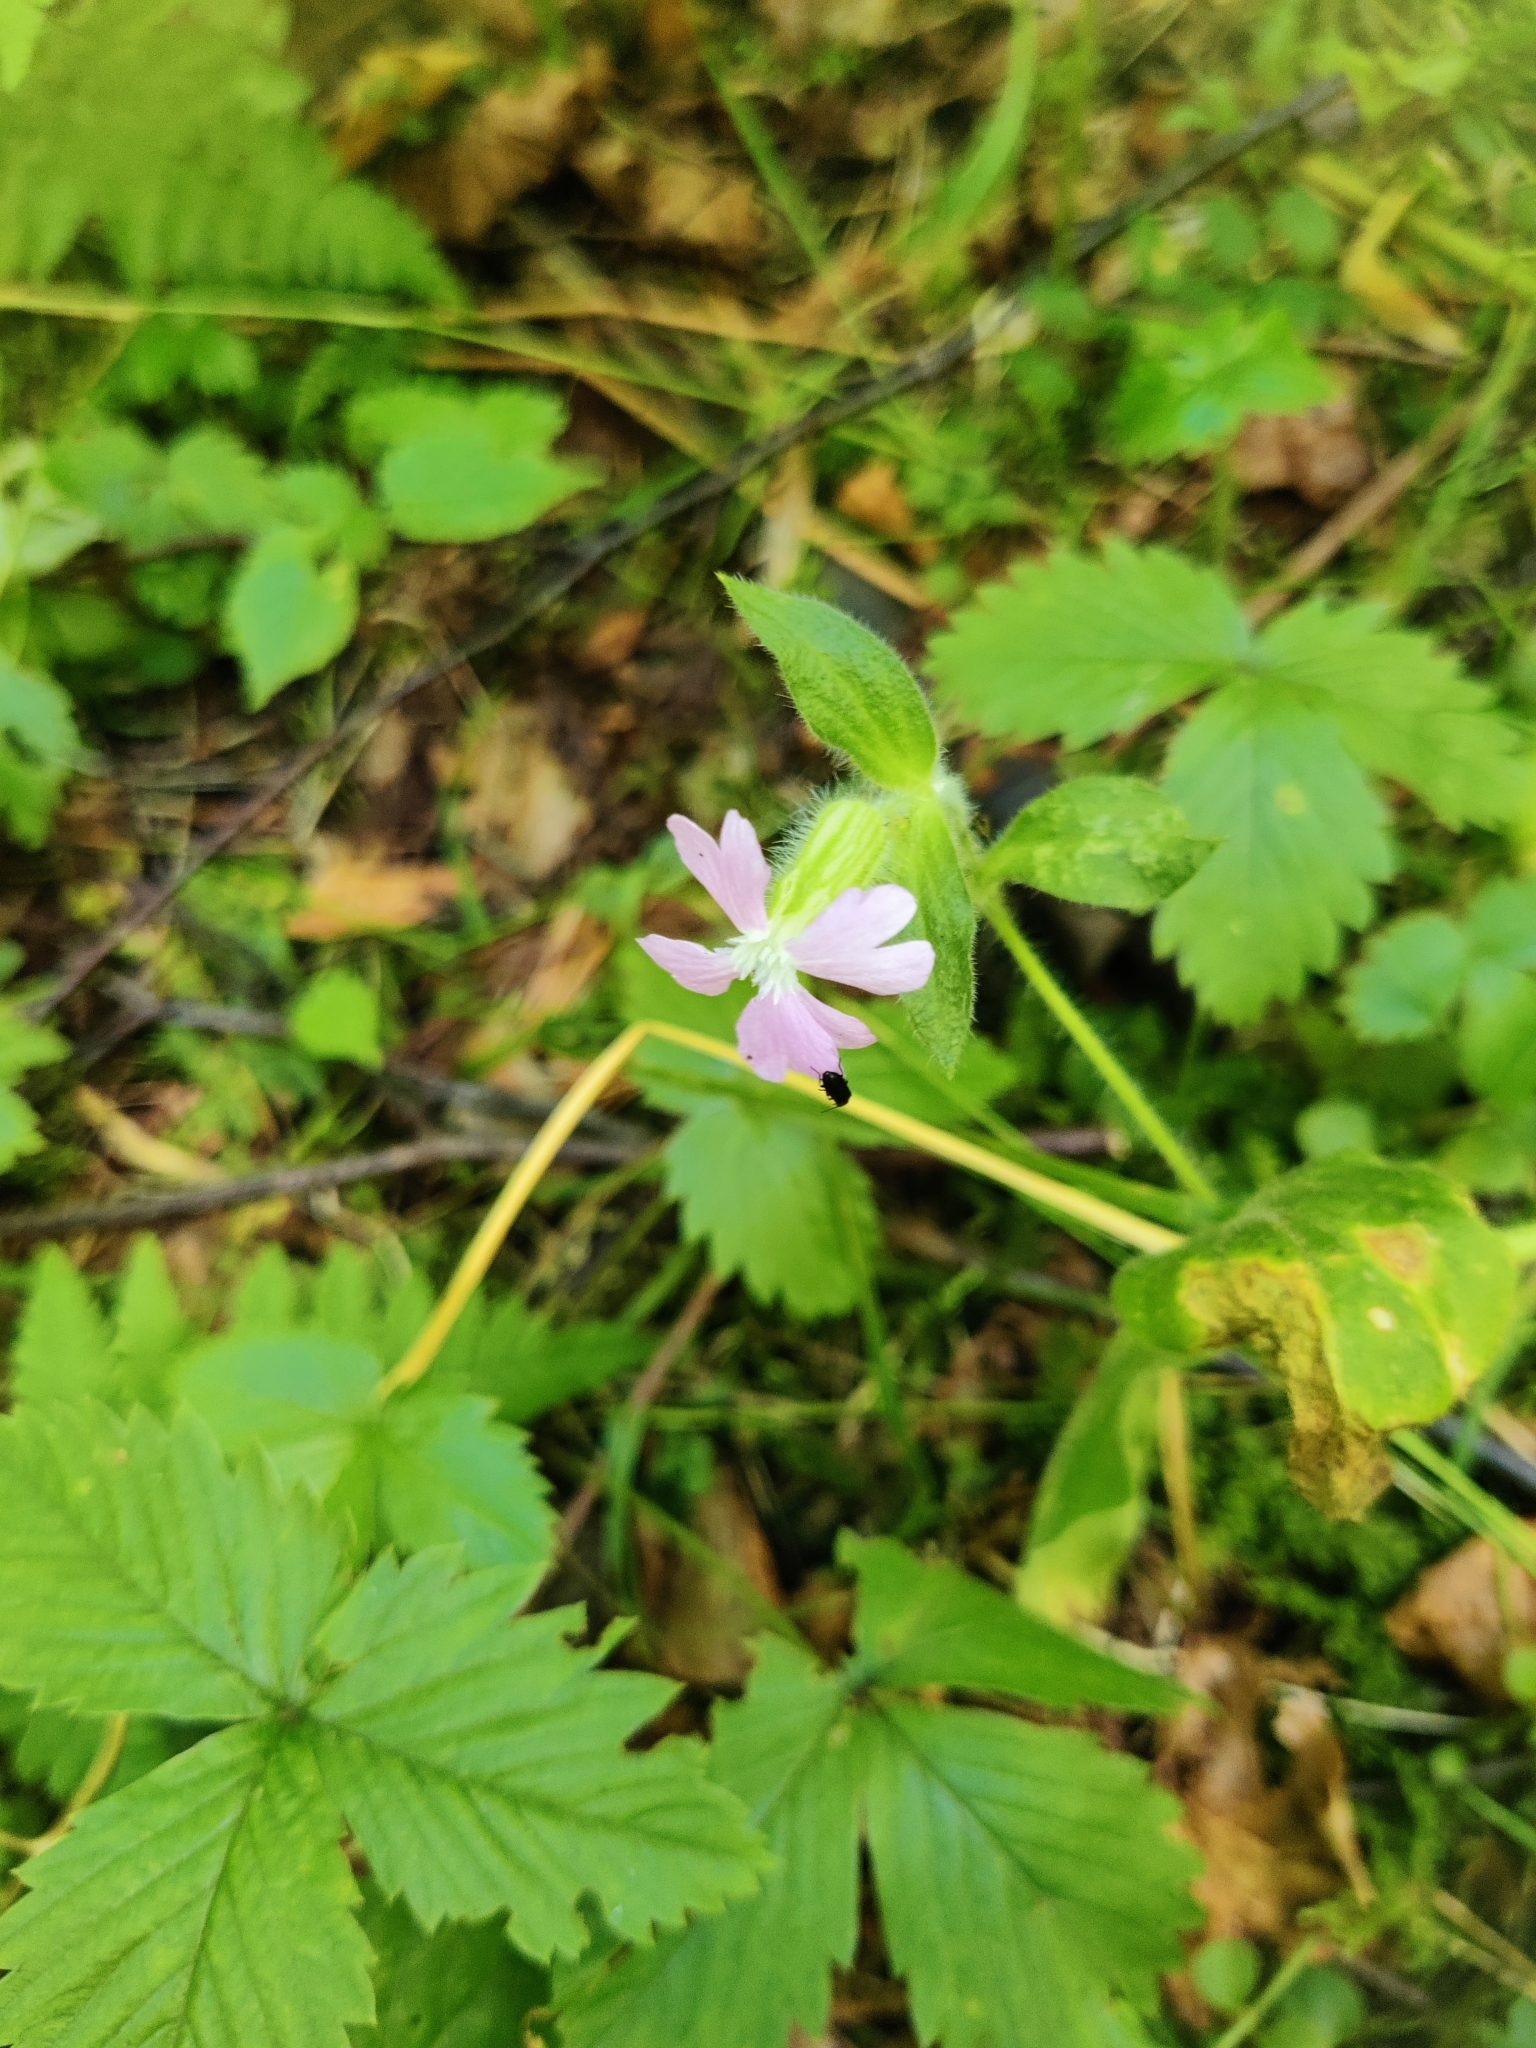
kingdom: Plantae
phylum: Tracheophyta
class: Magnoliopsida
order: Caryophyllales
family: Caryophyllaceae
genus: Silene
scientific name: Silene dioica
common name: Red campion
